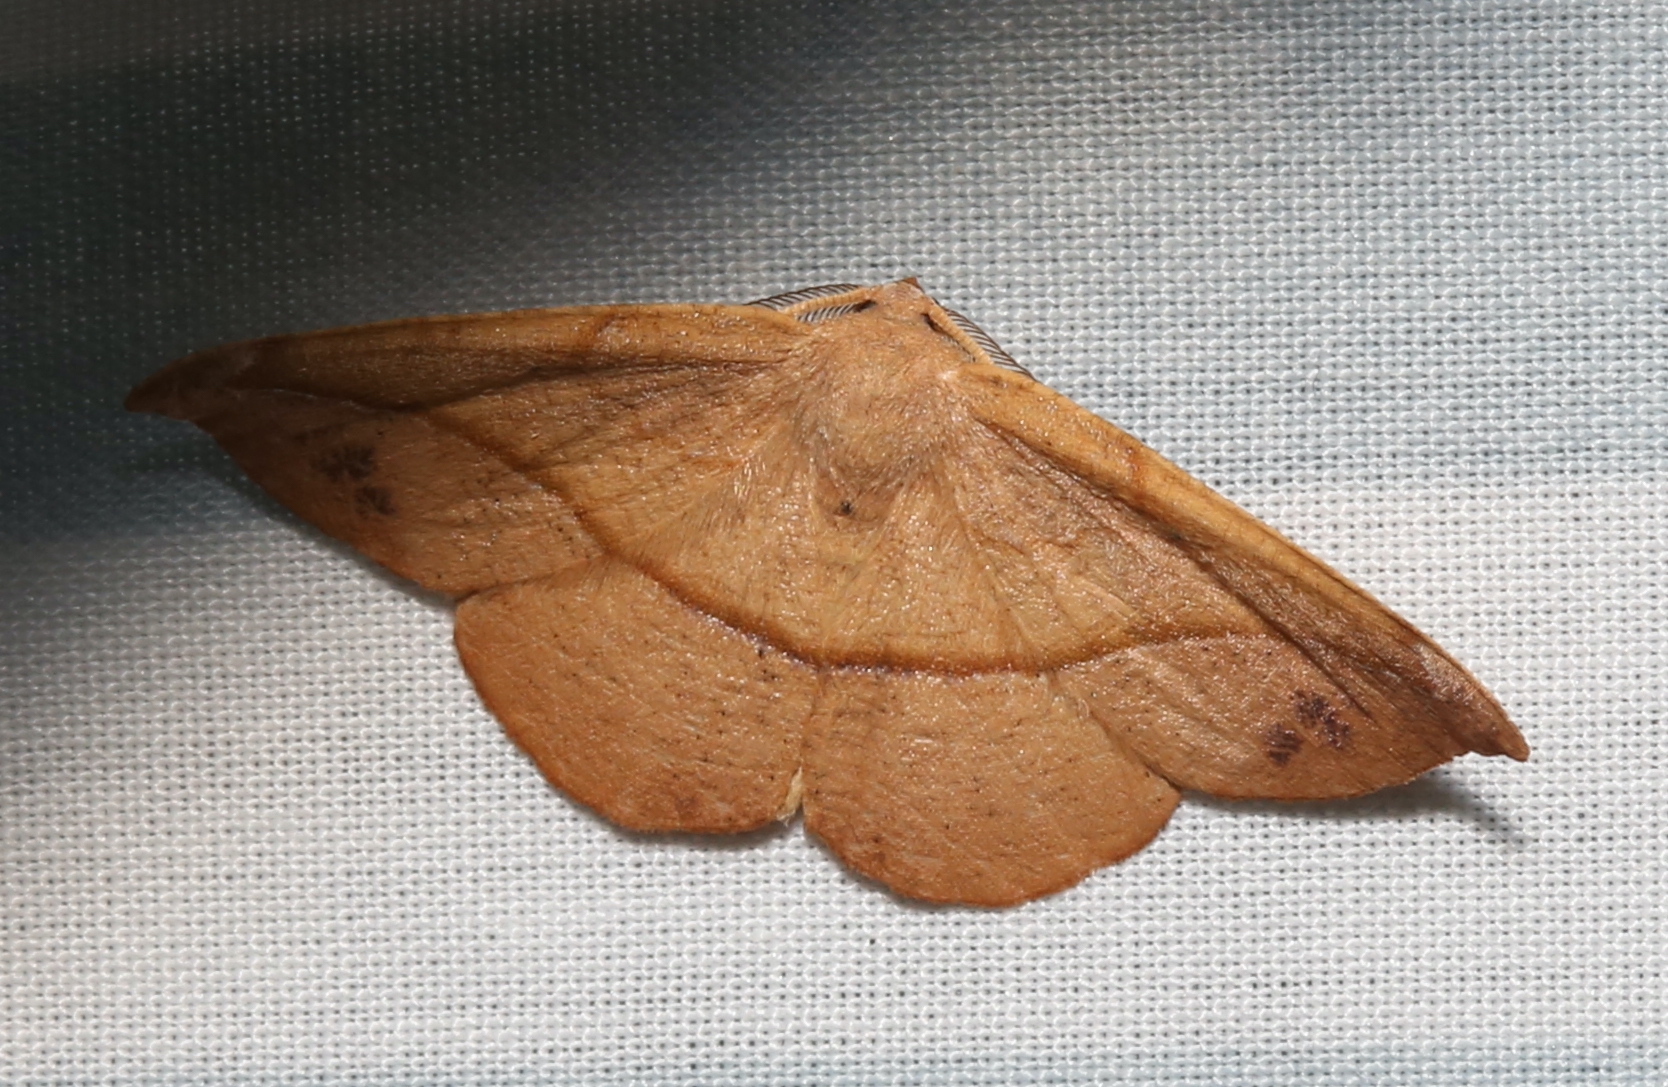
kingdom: Animalia
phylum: Arthropoda
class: Insecta
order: Lepidoptera
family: Geometridae
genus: Patalene
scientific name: Patalene olyzonaria
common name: Juniper geometer moth
